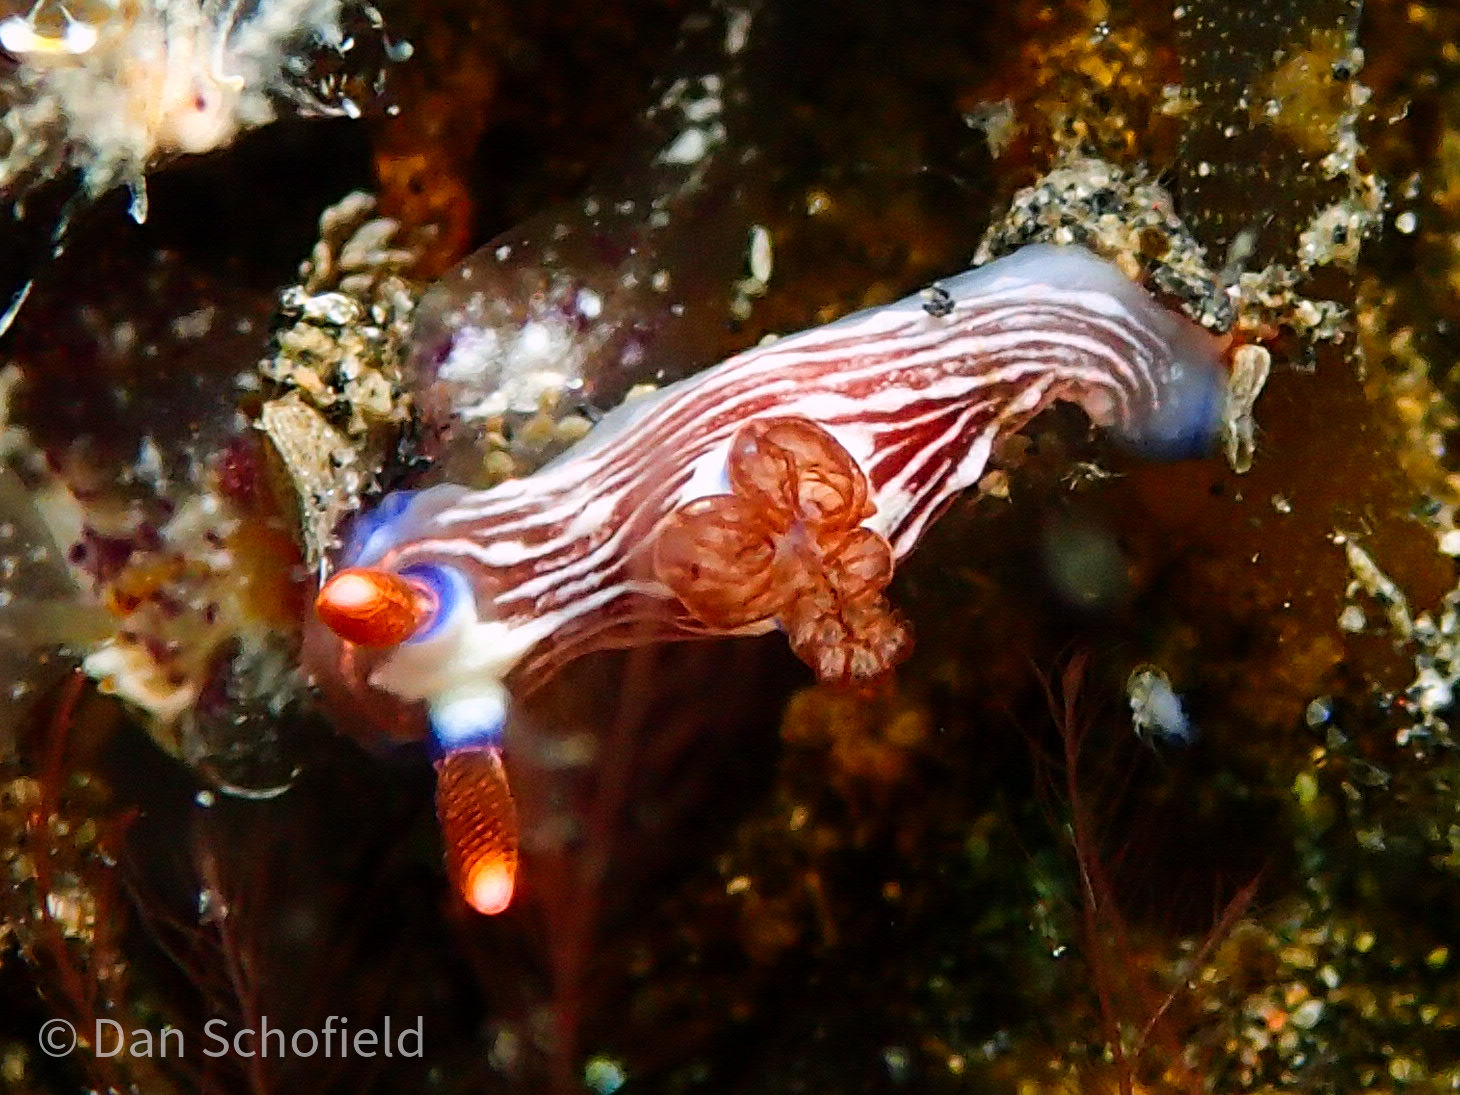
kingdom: Animalia
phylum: Mollusca
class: Gastropoda
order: Nudibranchia
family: Polyceridae
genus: Nembrotha
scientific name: Nembrotha lineolata
